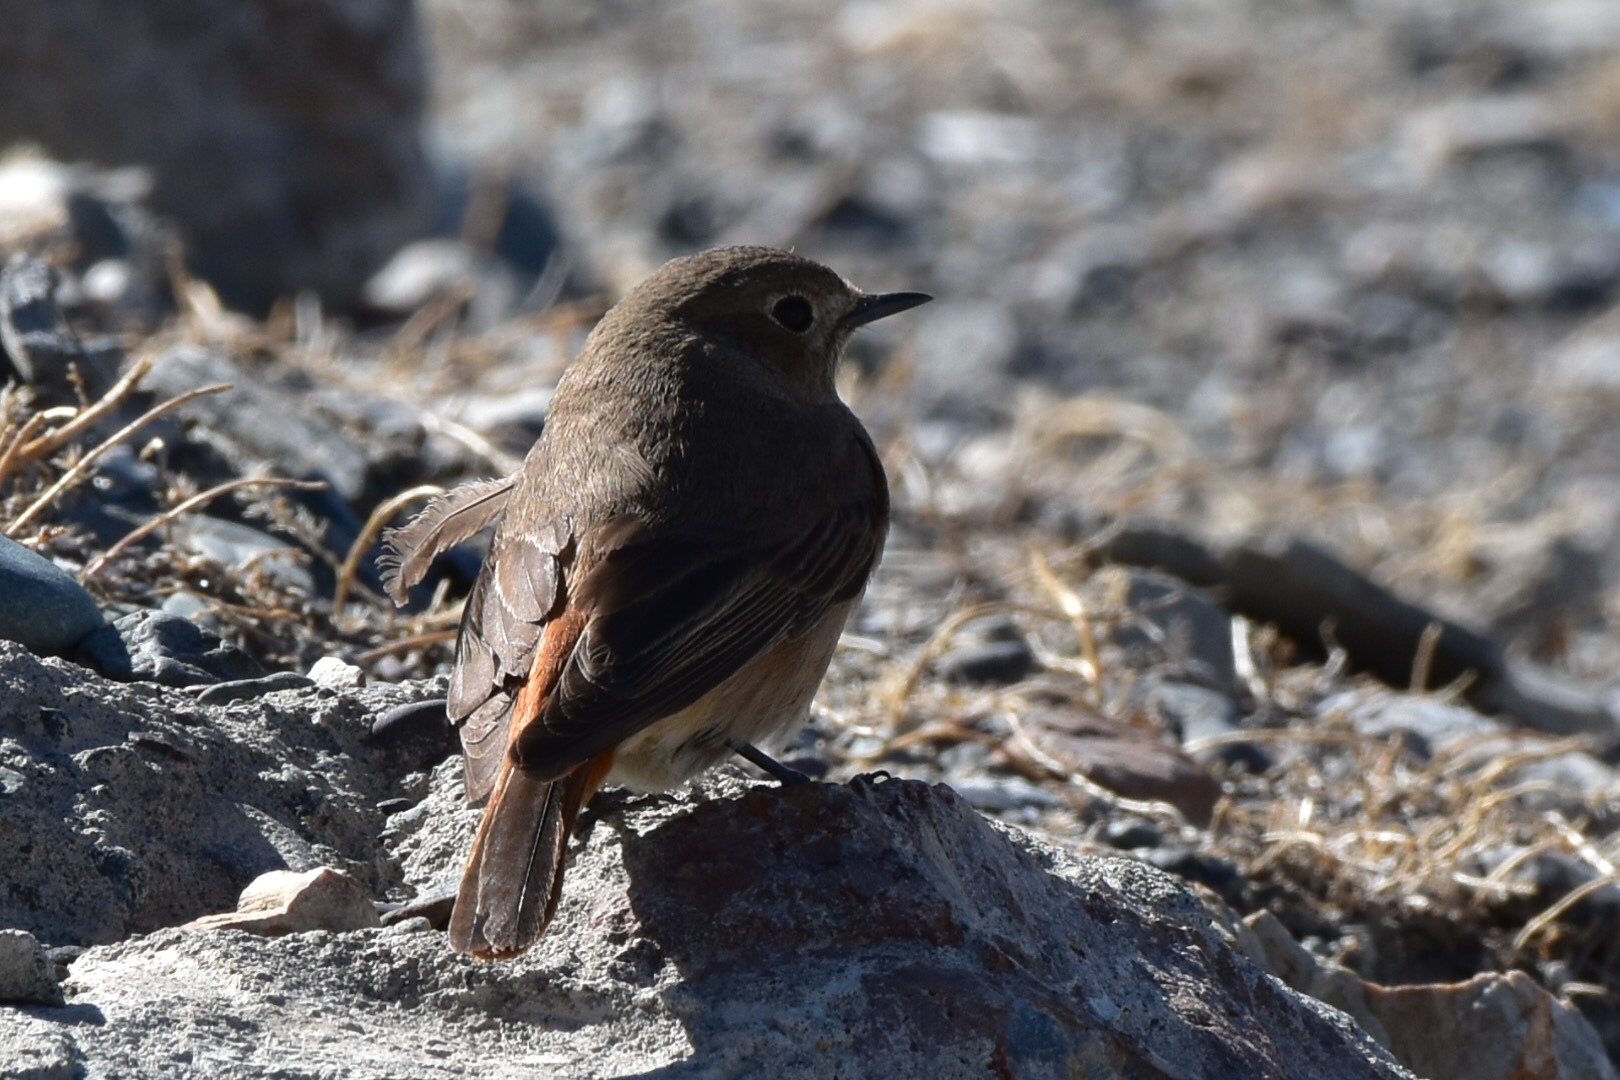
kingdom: Animalia
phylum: Chordata
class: Aves
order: Passeriformes
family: Muscicapidae
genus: Phoenicurus
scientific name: Phoenicurus phoenicurus
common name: Common redstart
